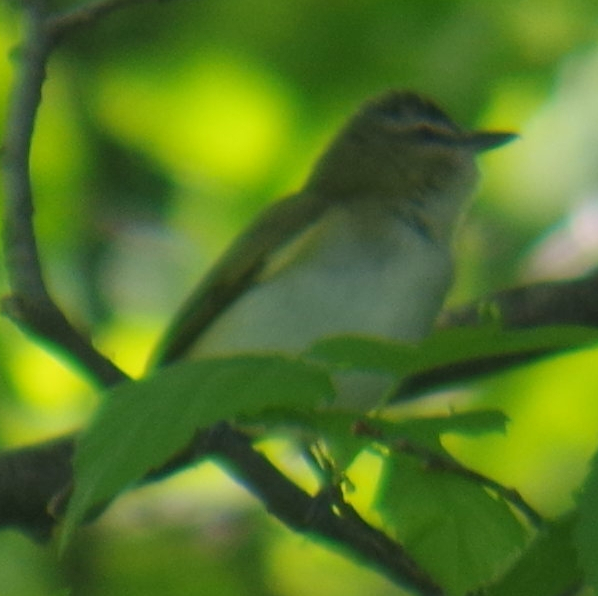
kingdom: Animalia
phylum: Chordata
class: Aves
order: Passeriformes
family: Vireonidae
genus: Vireo
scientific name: Vireo olivaceus
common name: Red-eyed vireo
